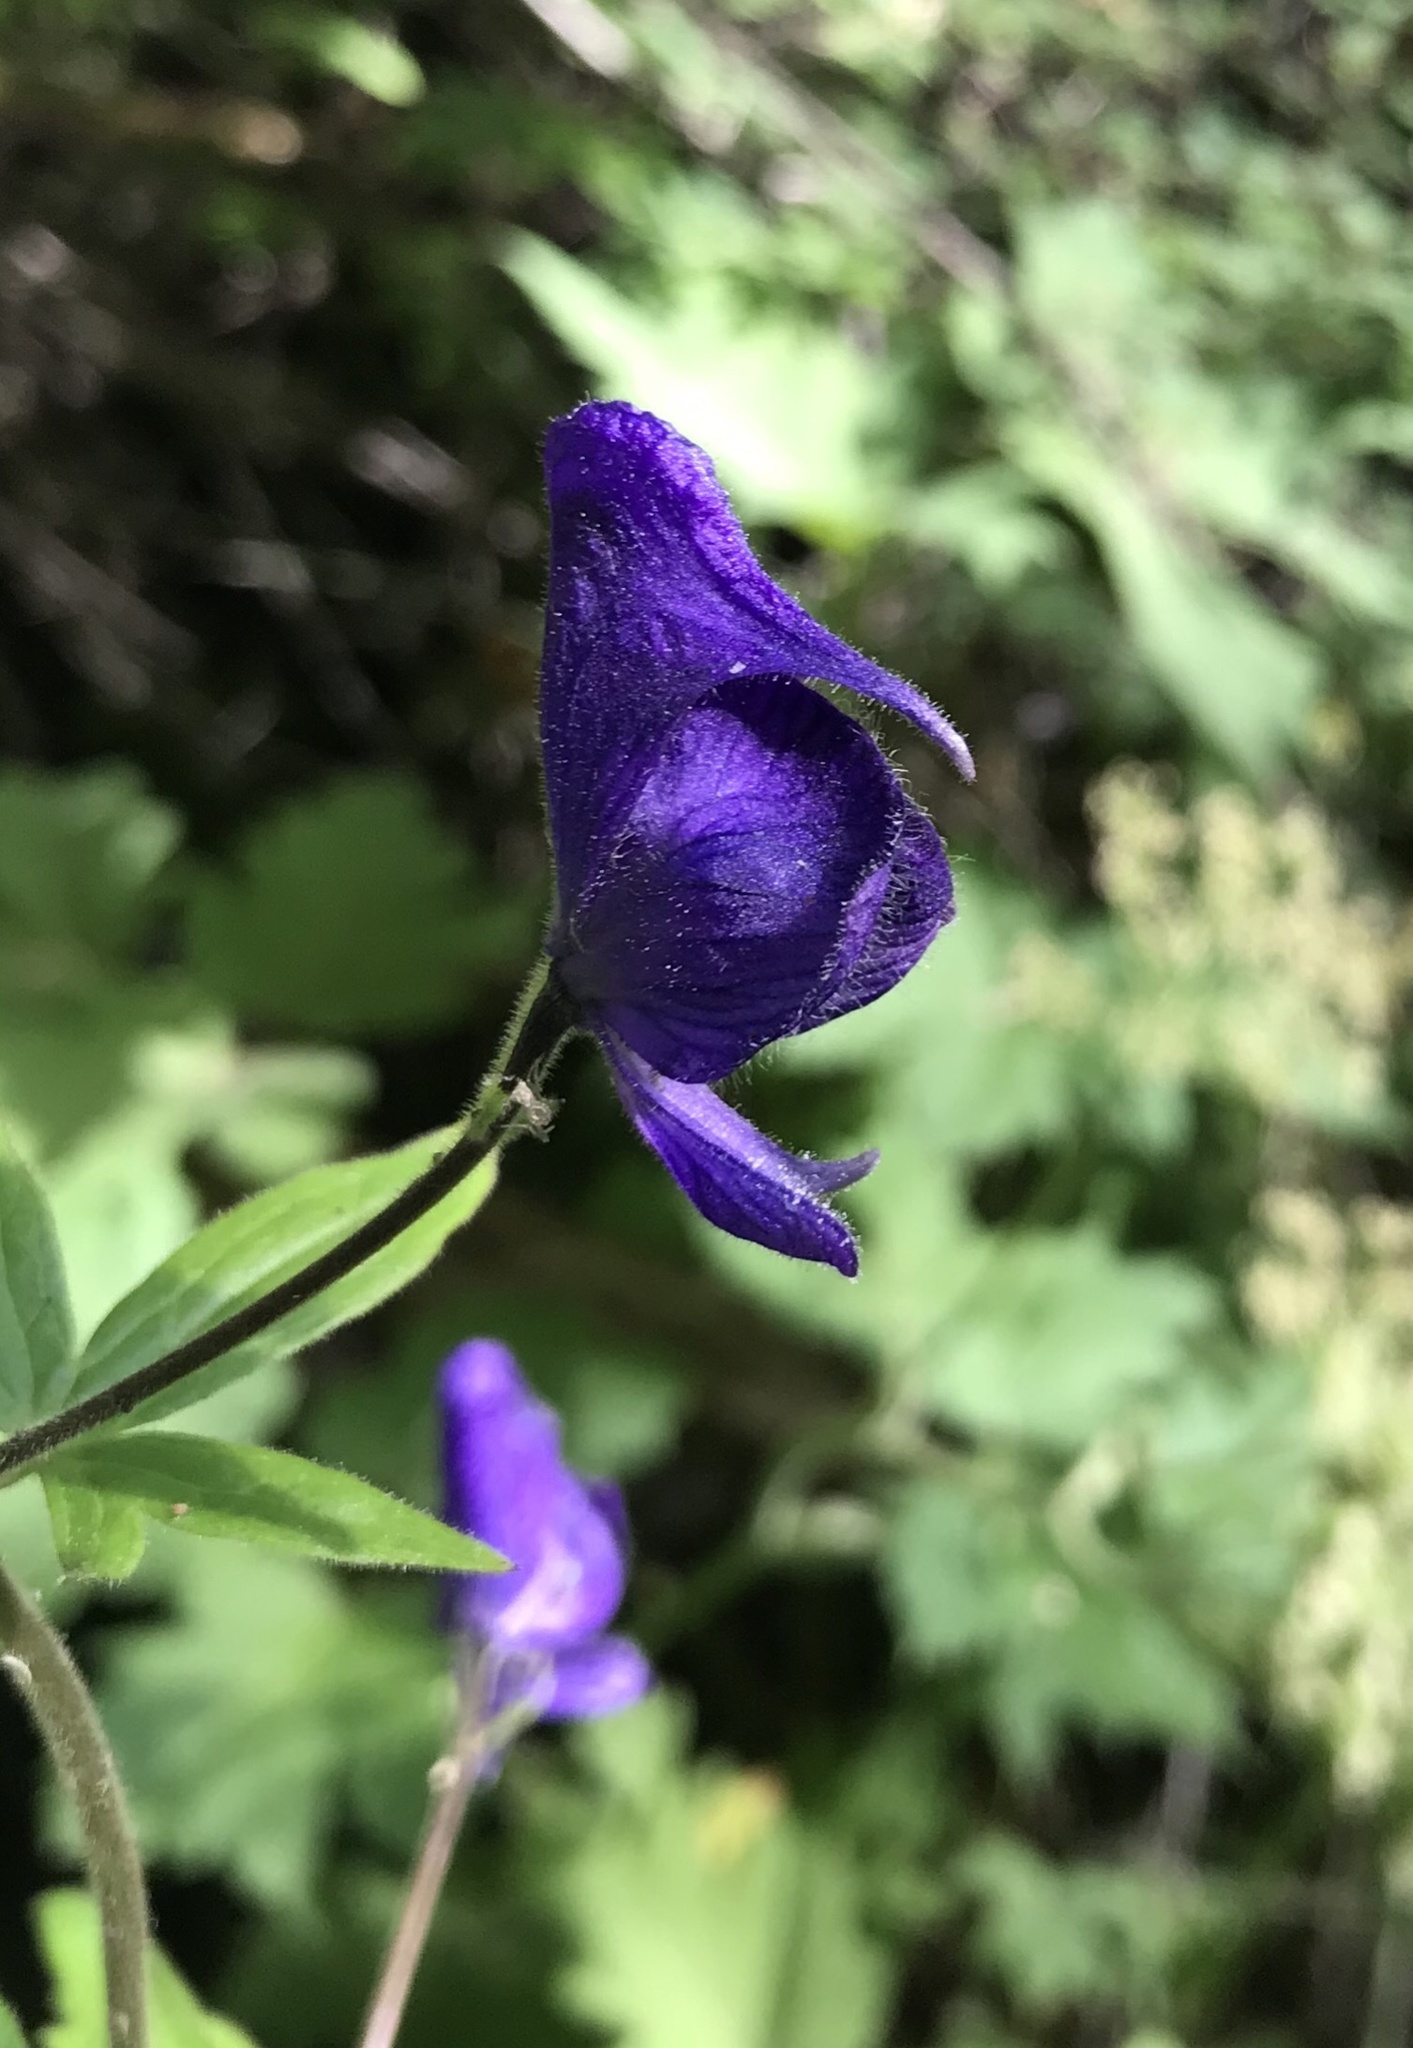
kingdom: Plantae
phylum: Tracheophyta
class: Magnoliopsida
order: Ranunculales
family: Ranunculaceae
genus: Aconitum
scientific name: Aconitum columbianum
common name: Columbia aconite
